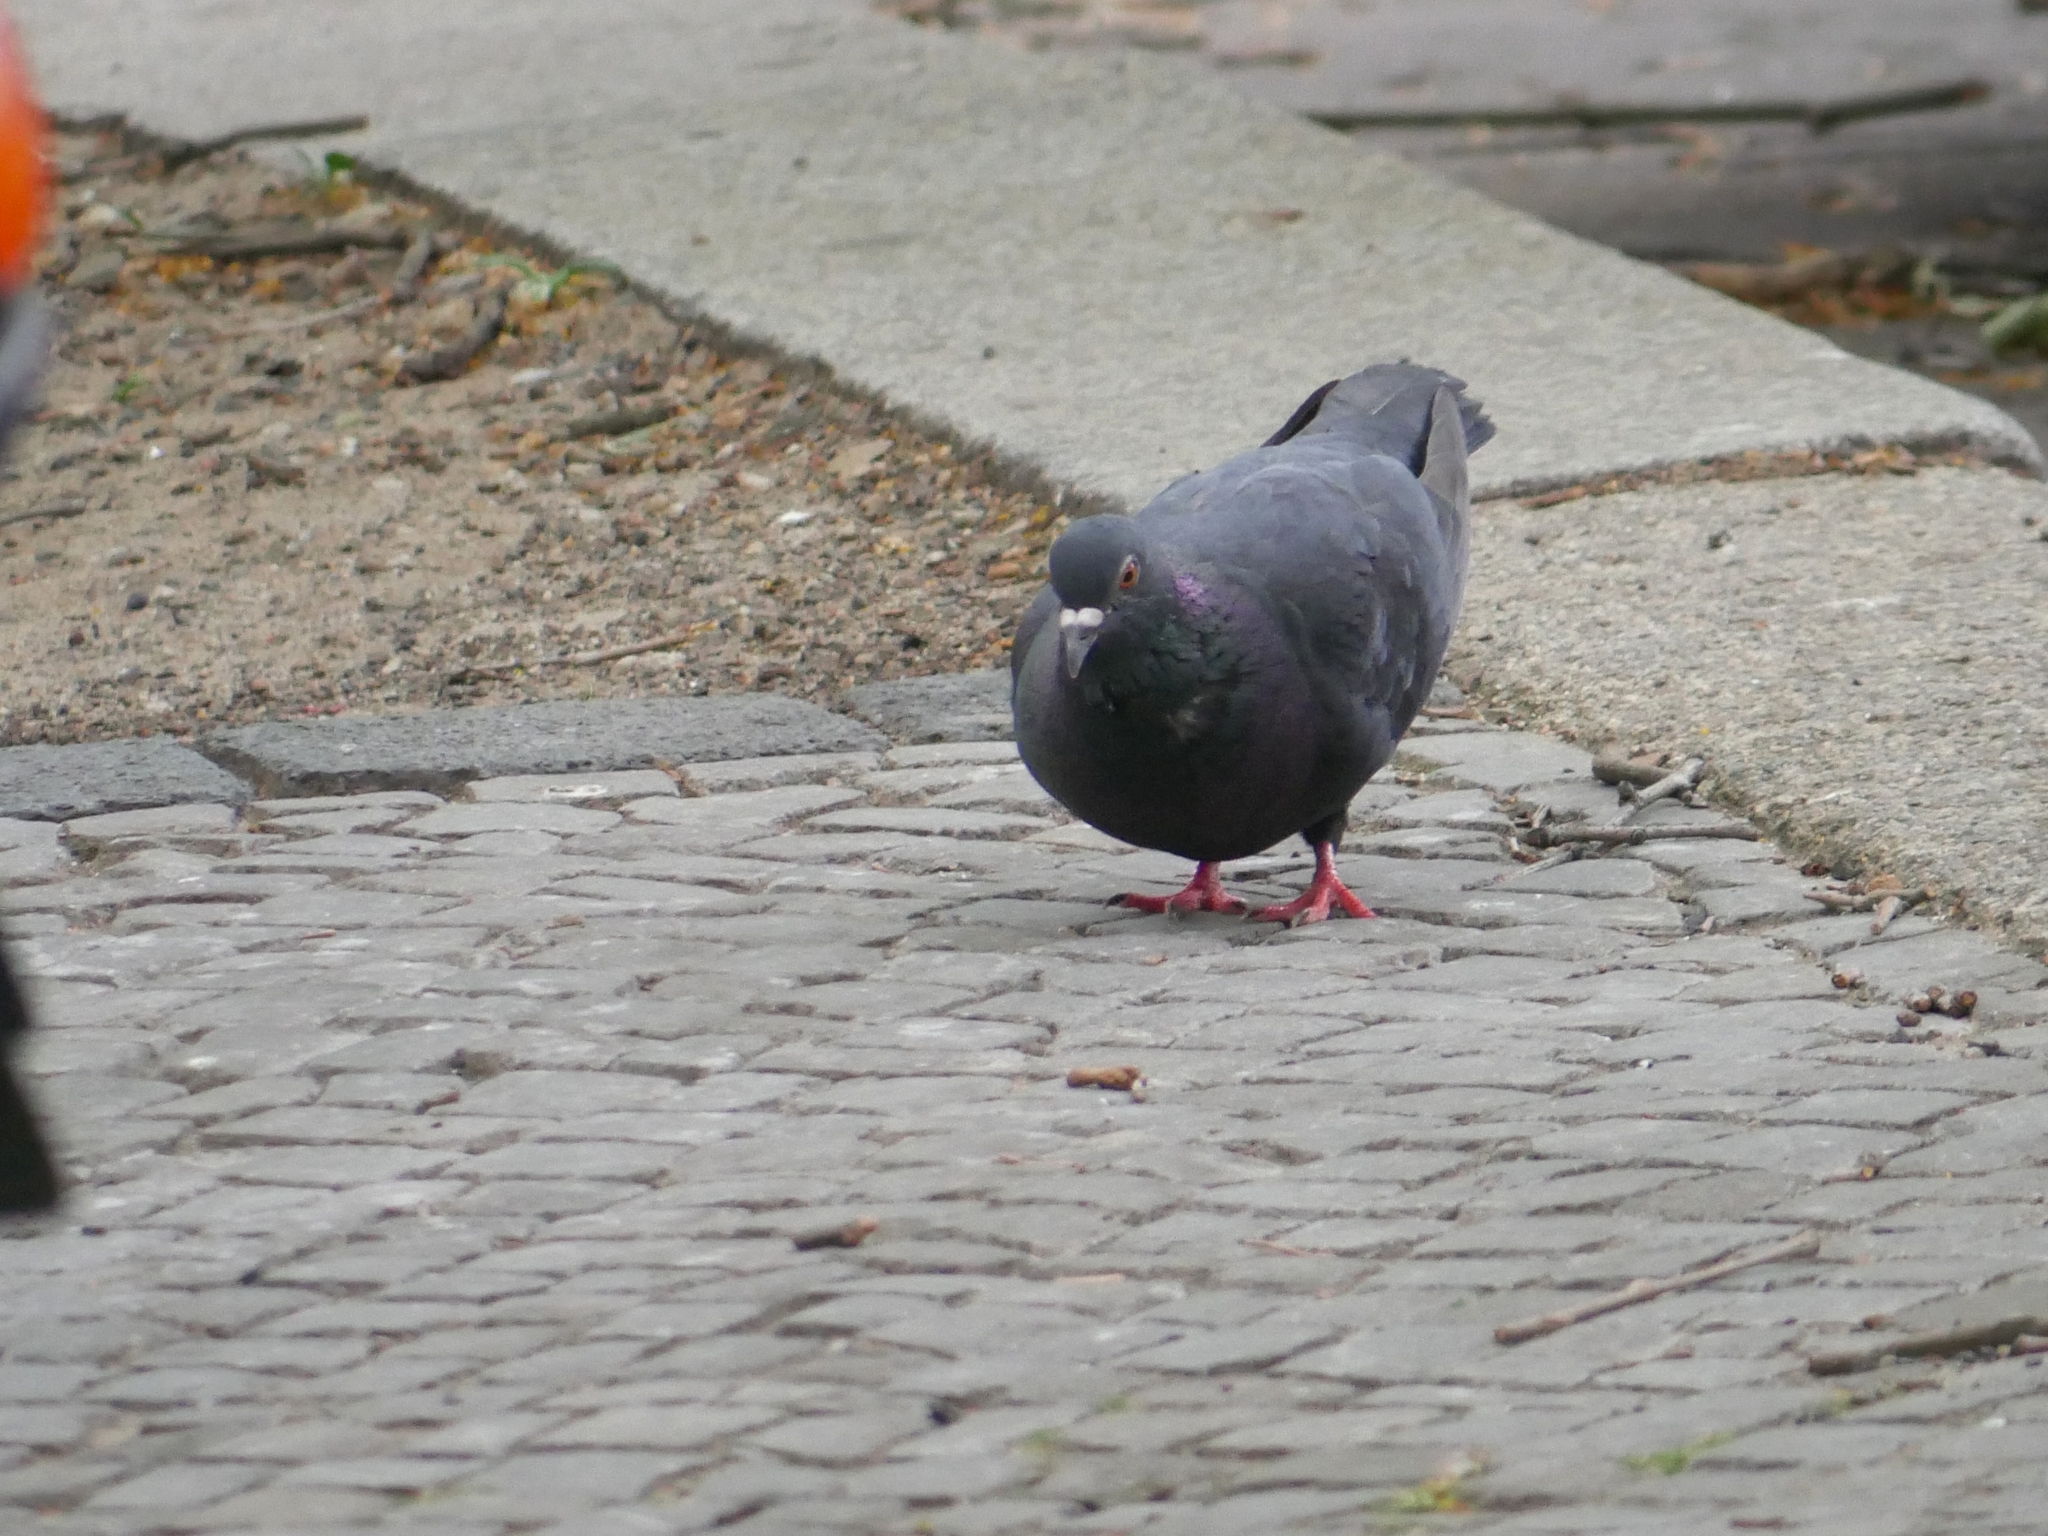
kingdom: Animalia
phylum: Chordata
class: Aves
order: Columbiformes
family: Columbidae
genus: Columba
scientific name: Columba livia
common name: Rock pigeon
